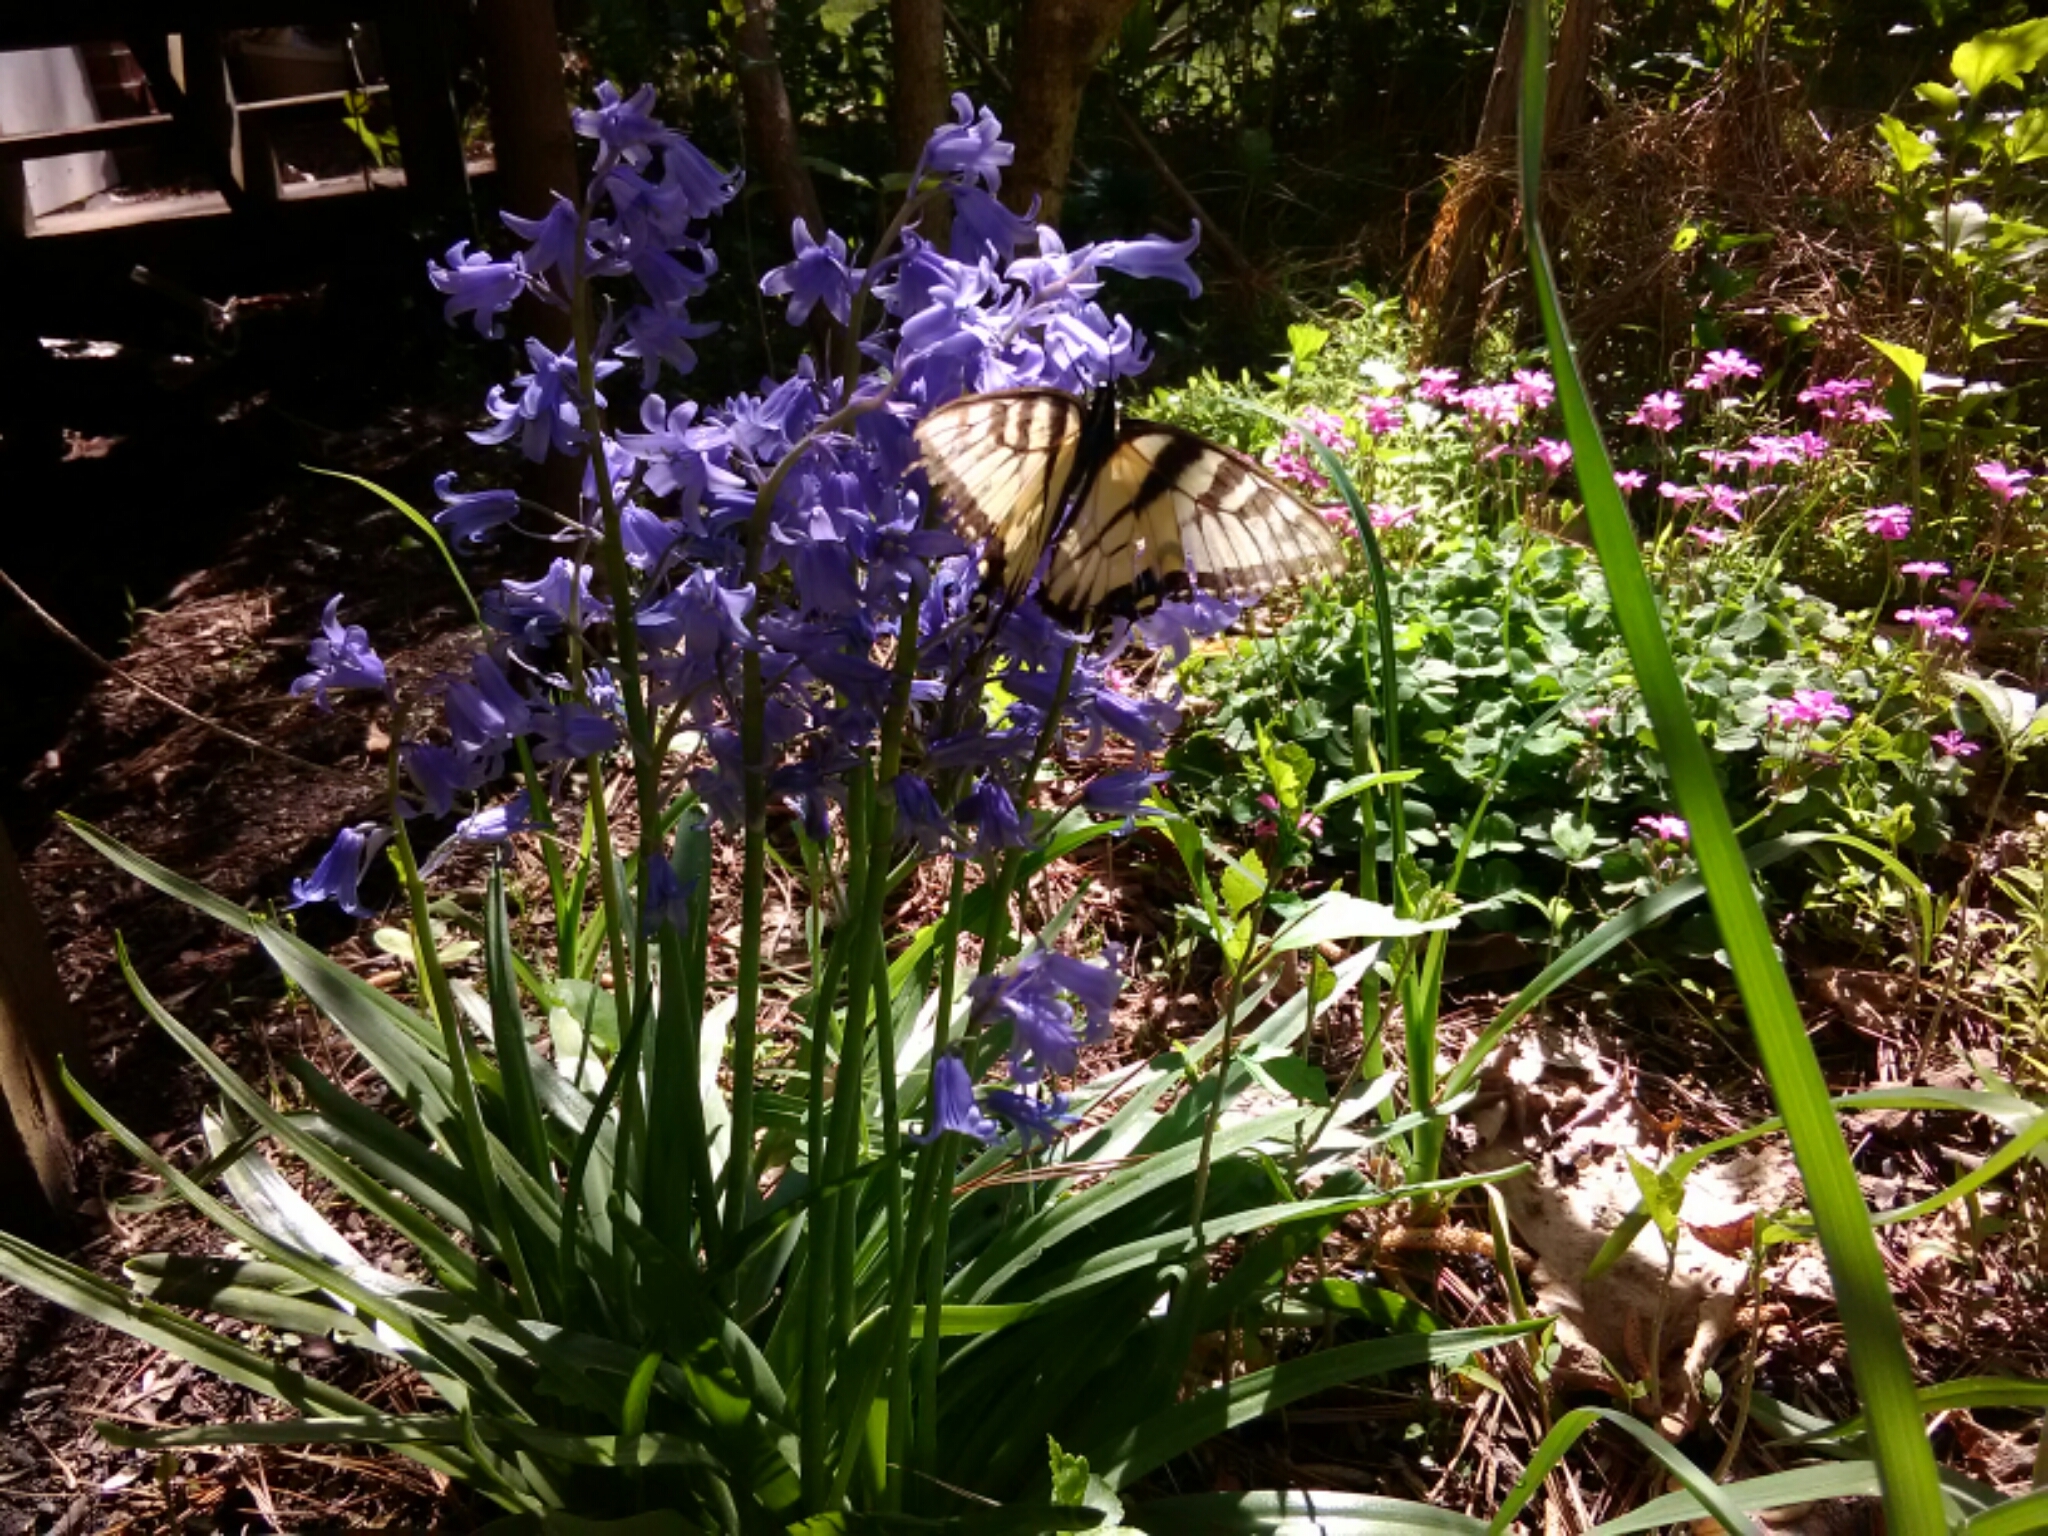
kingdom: Animalia
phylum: Arthropoda
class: Insecta
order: Lepidoptera
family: Papilionidae
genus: Papilio
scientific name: Papilio glaucus
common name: Tiger swallowtail
